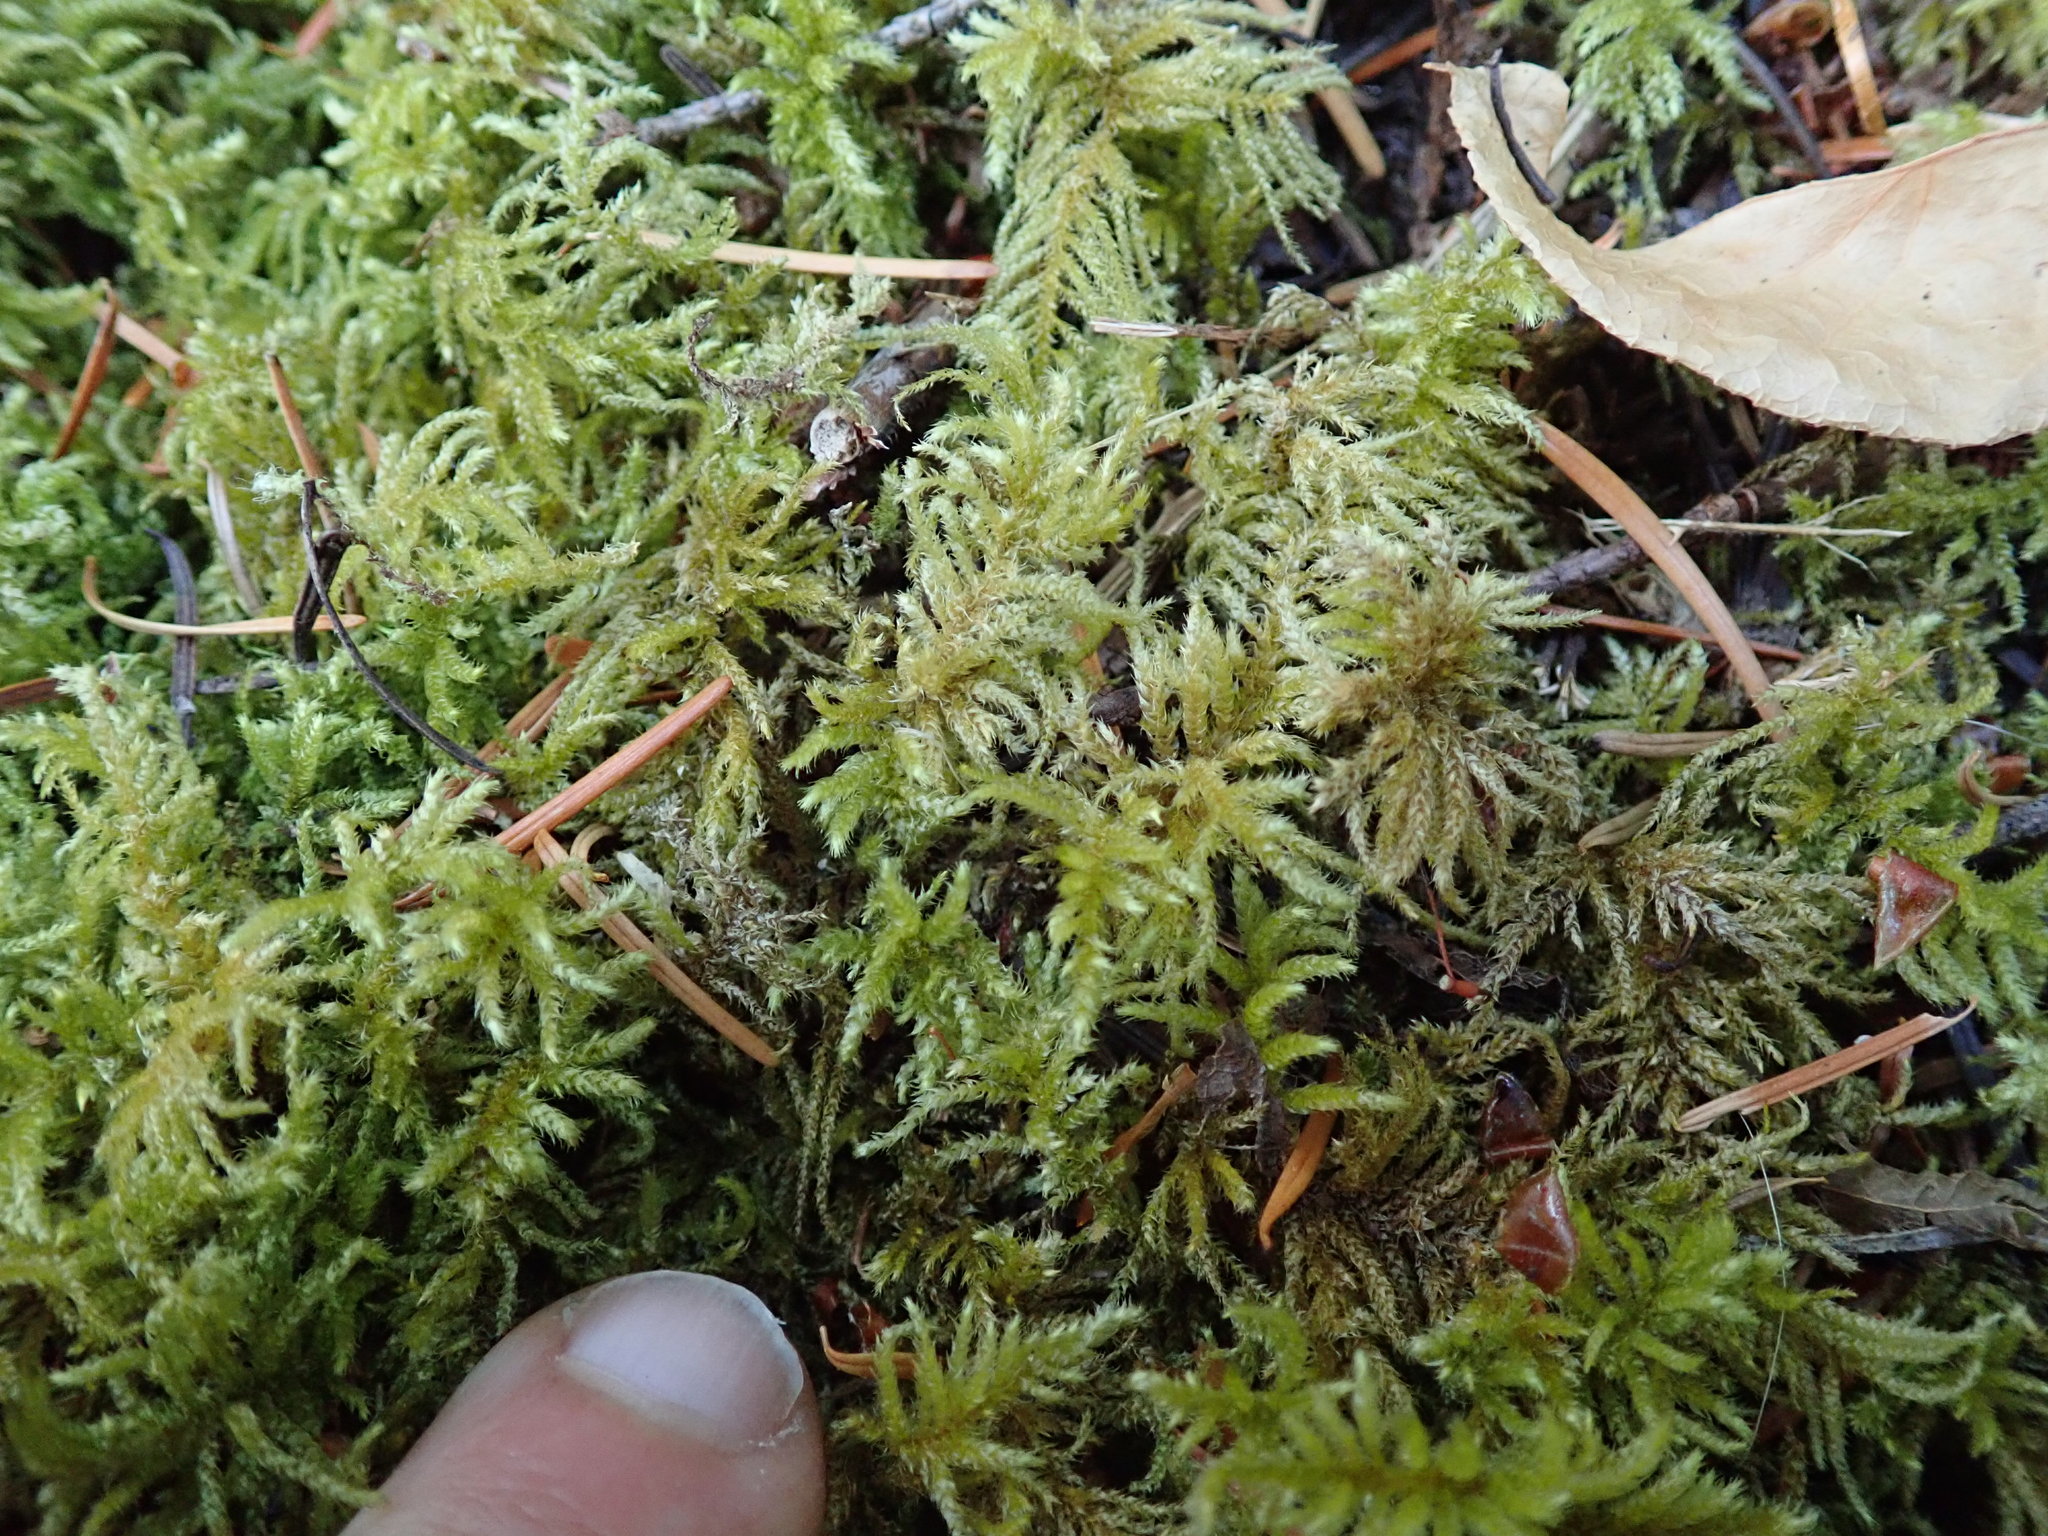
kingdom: Plantae
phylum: Bryophyta
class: Bryopsida
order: Hypnales
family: Brachytheciaceae
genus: Kindbergia
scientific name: Kindbergia oregana
